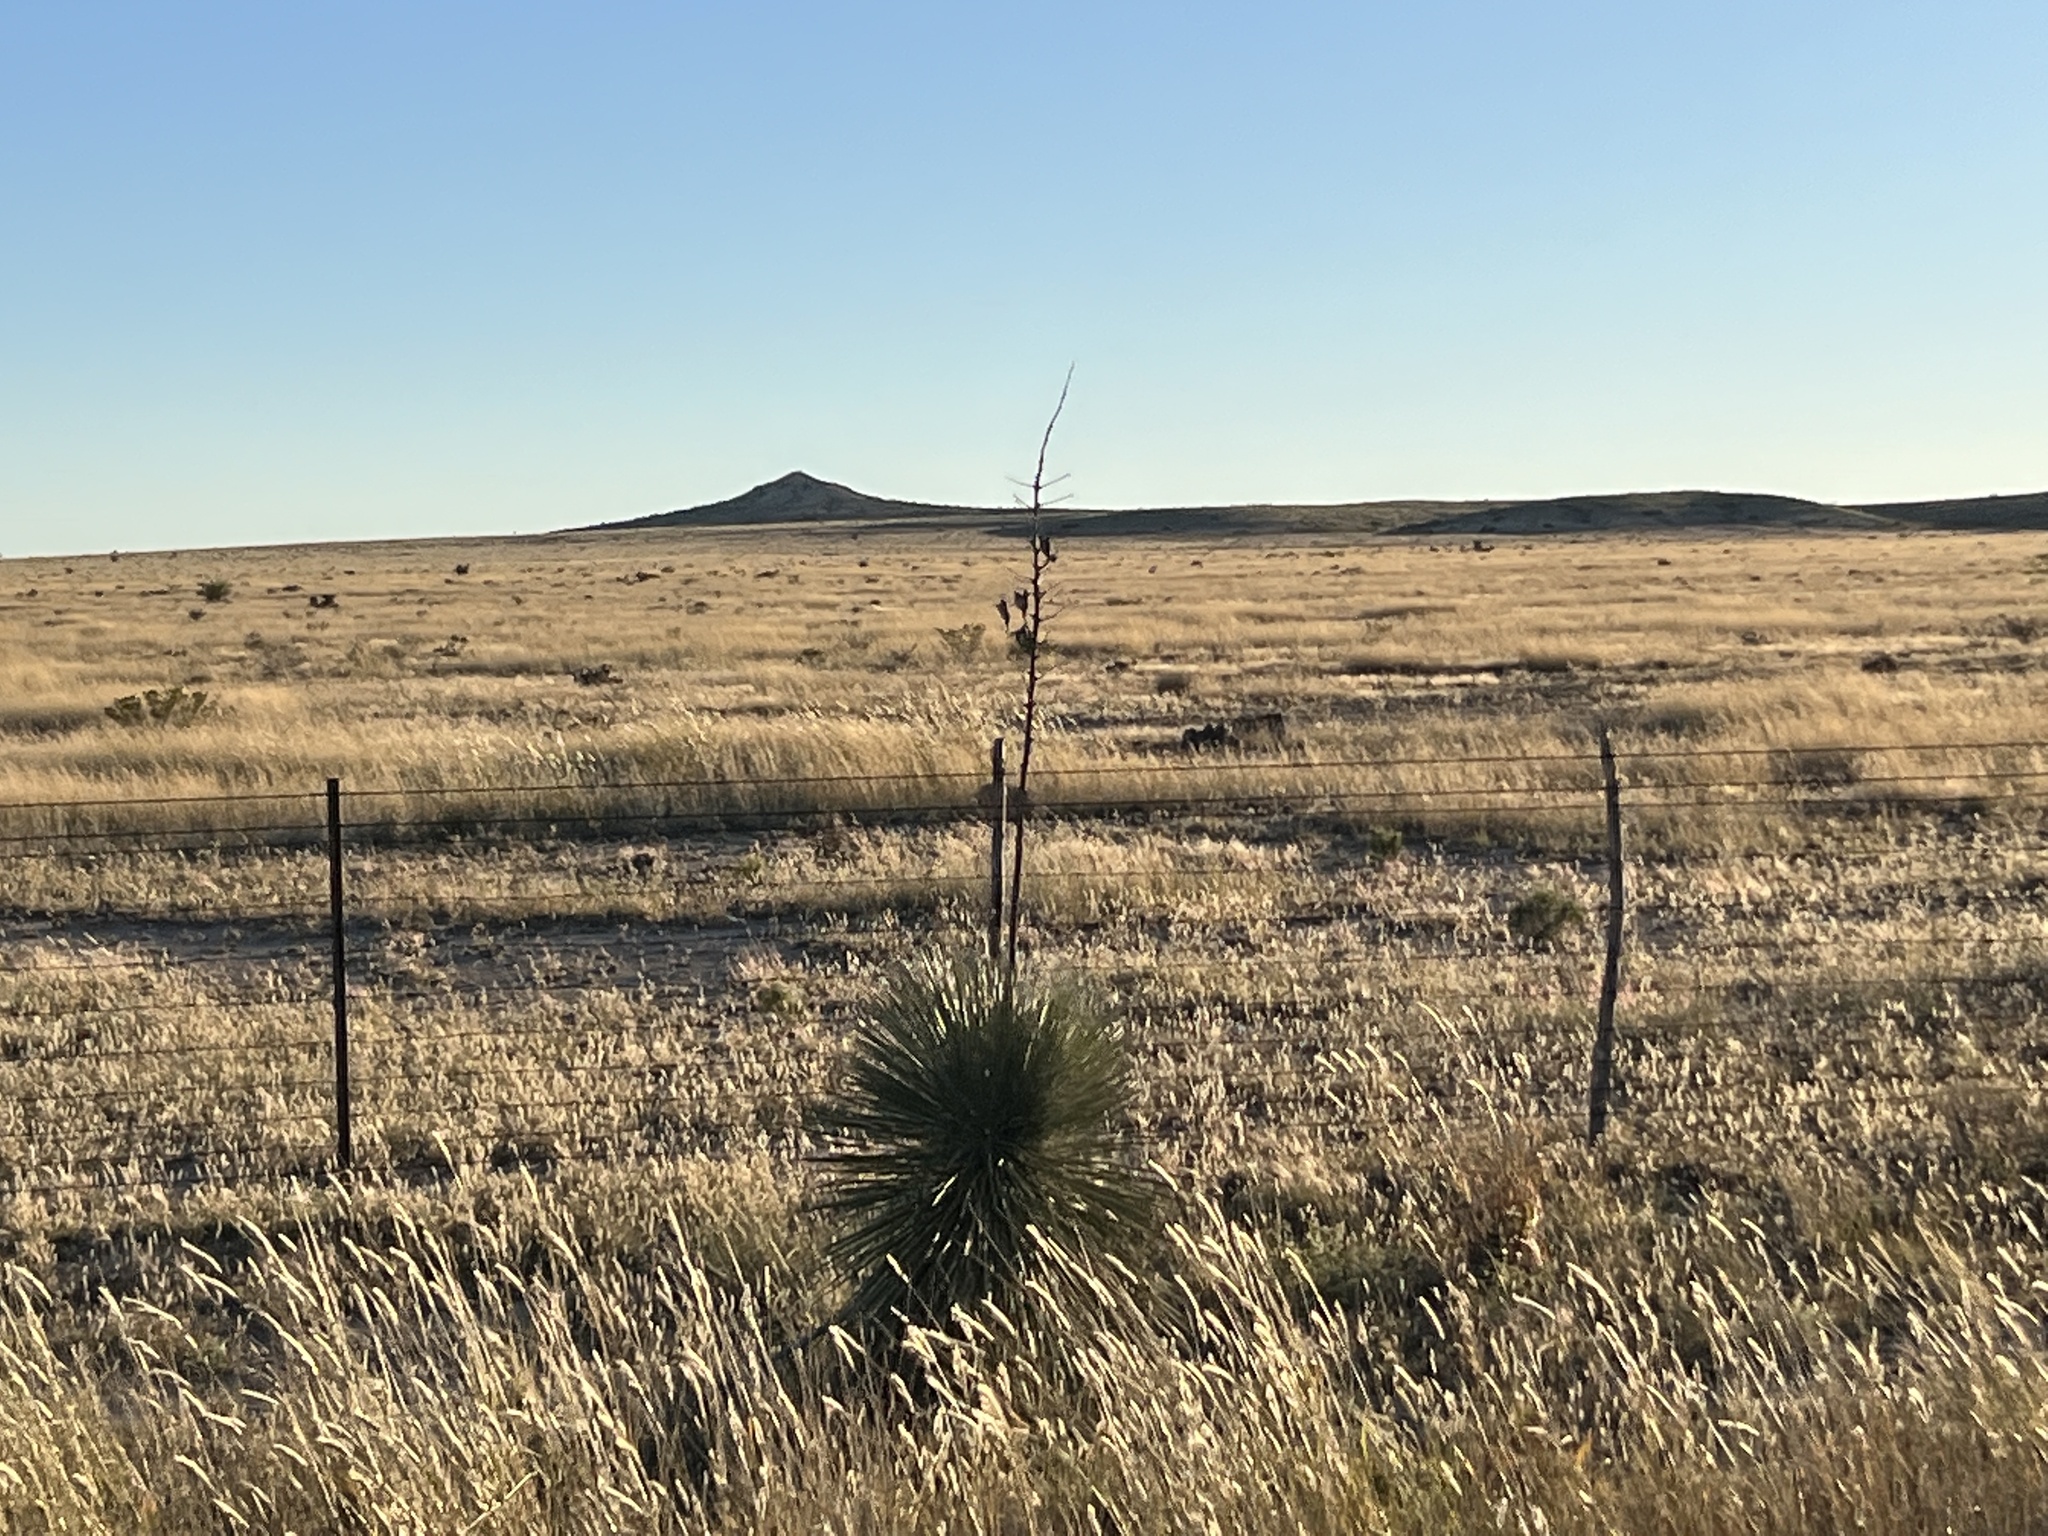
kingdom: Plantae
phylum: Tracheophyta
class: Liliopsida
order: Asparagales
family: Asparagaceae
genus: Yucca
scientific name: Yucca elata
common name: Palmella
